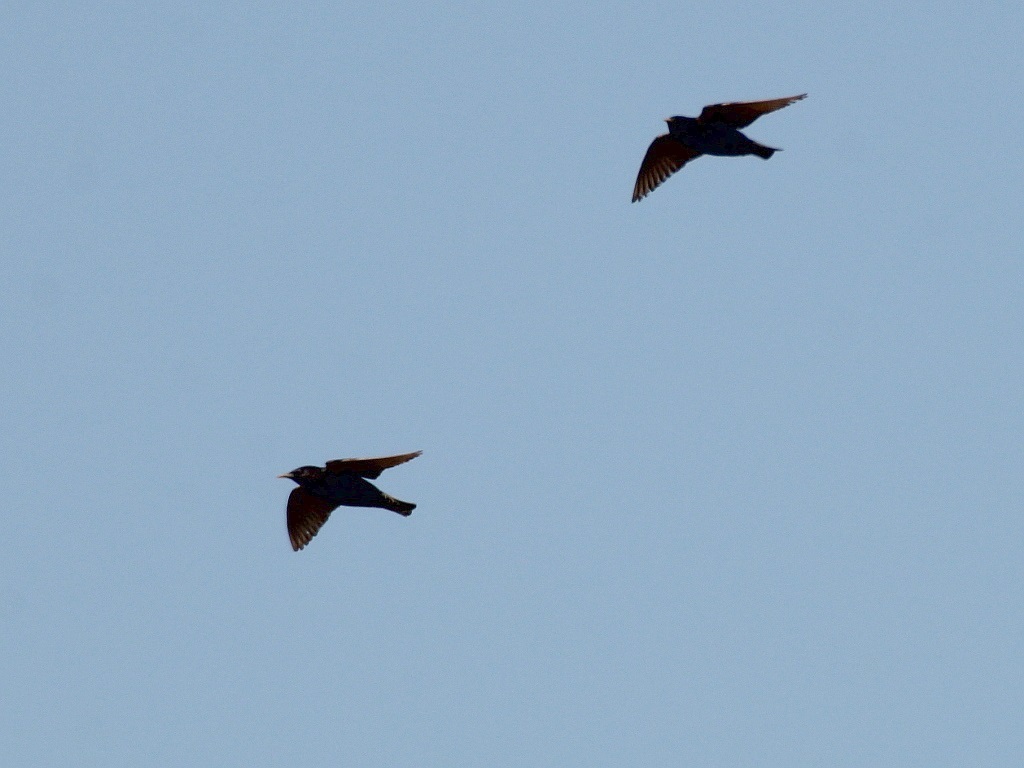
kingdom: Animalia
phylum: Chordata
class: Aves
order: Passeriformes
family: Sturnidae
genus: Sturnus
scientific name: Sturnus vulgaris
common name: Common starling
